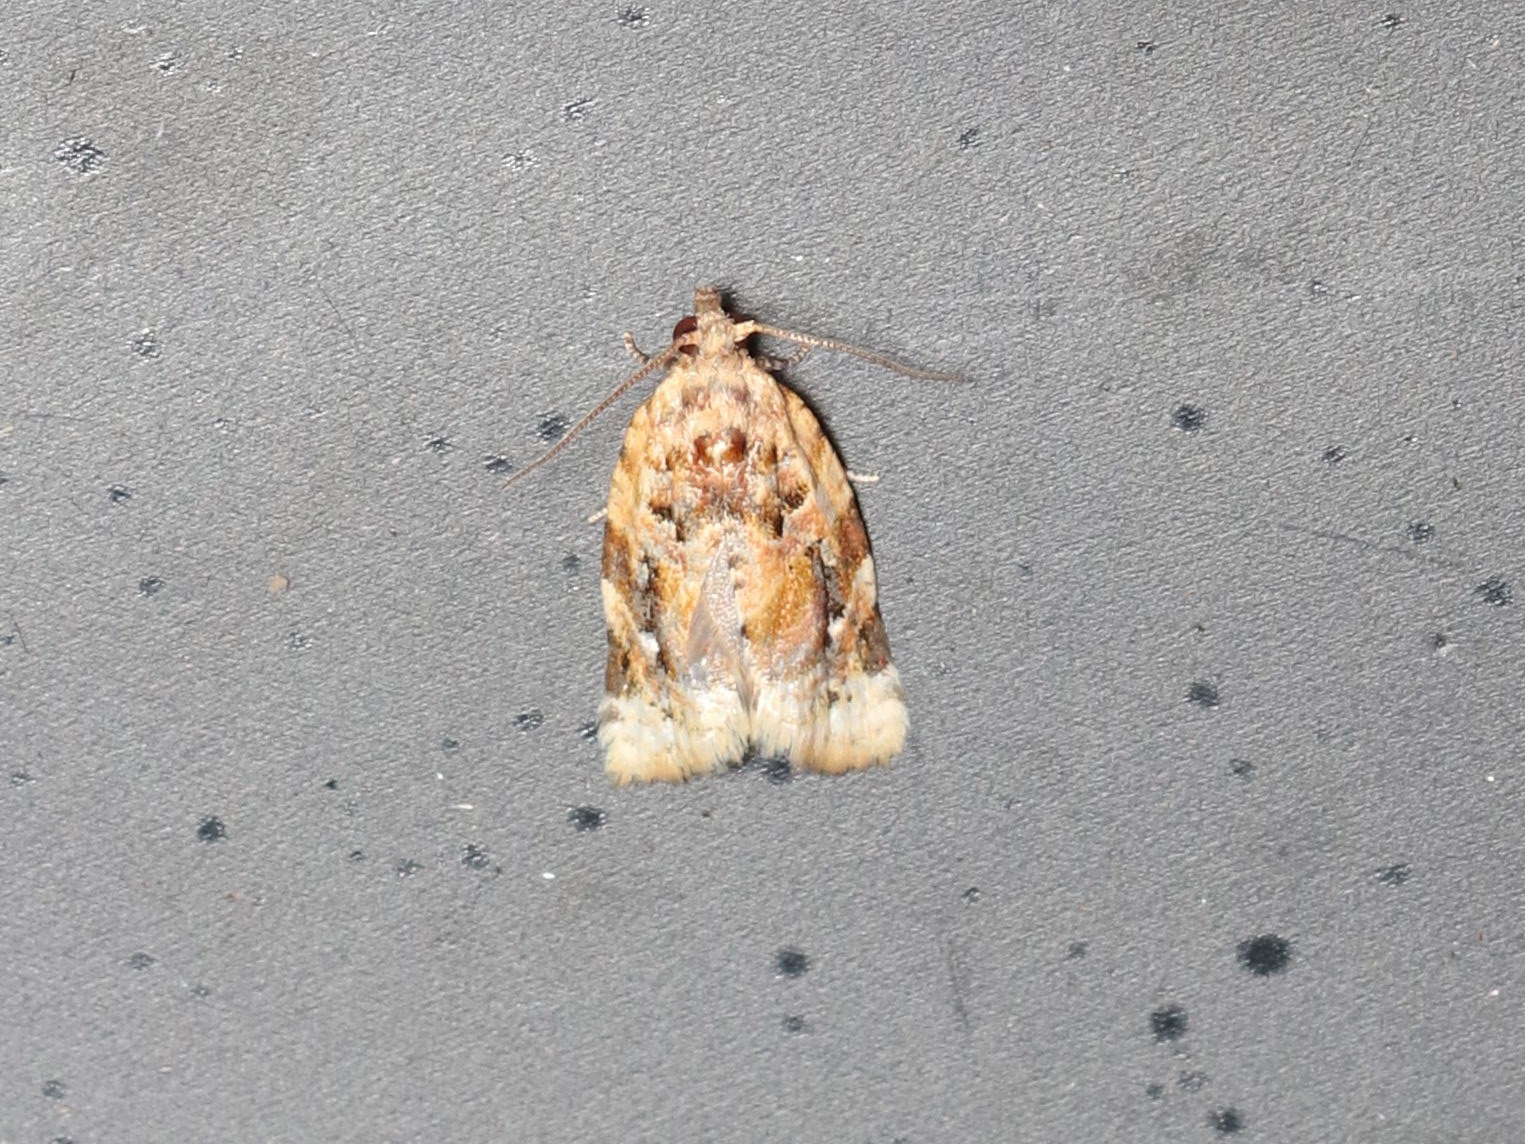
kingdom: Animalia
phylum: Arthropoda
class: Insecta
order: Lepidoptera
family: Tortricidae
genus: Argyrotaenia
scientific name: Argyrotaenia velutinana
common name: Red-banded leafroller moth
